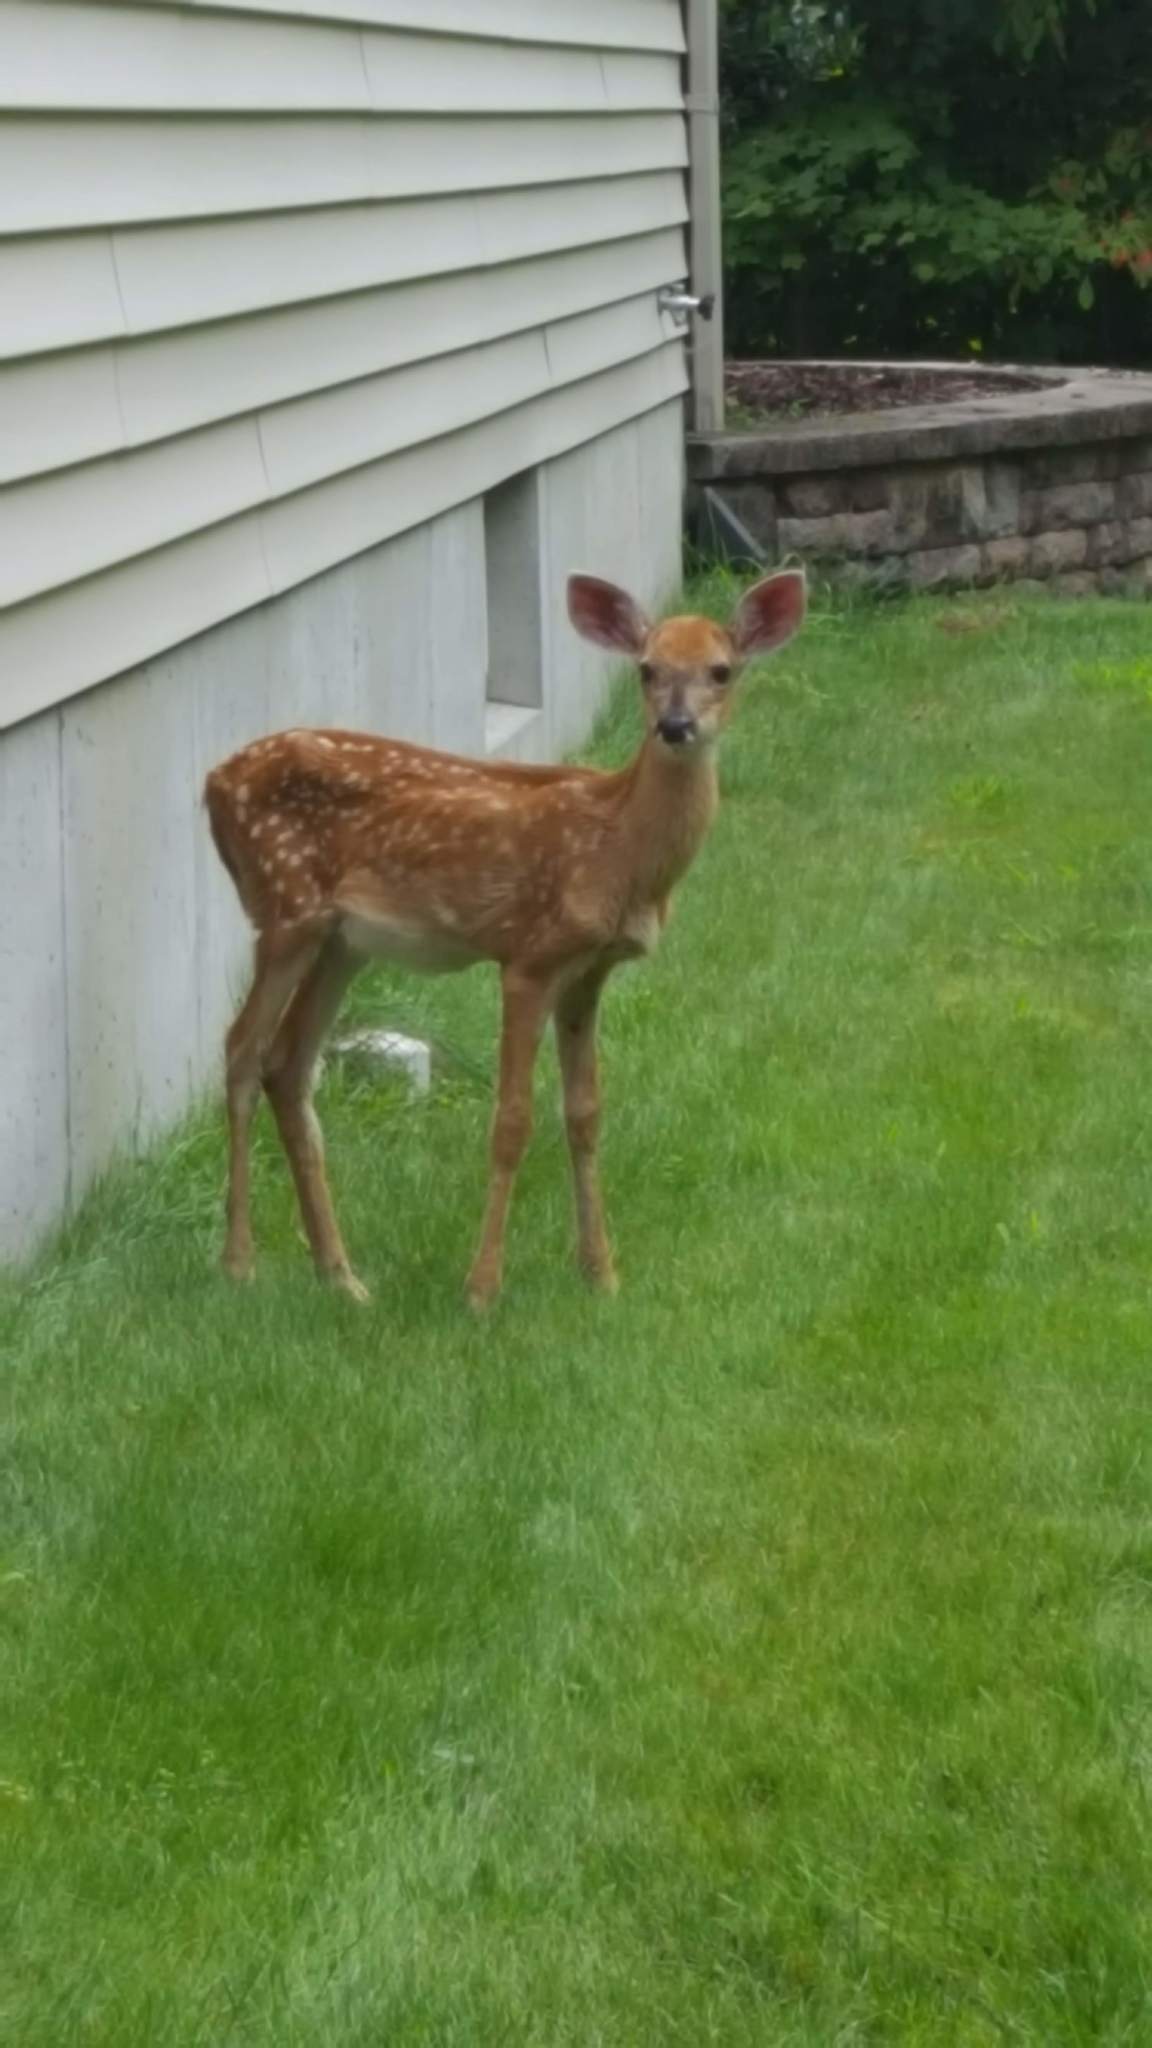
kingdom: Animalia
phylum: Chordata
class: Mammalia
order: Artiodactyla
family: Cervidae
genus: Odocoileus
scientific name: Odocoileus virginianus
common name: White-tailed deer
